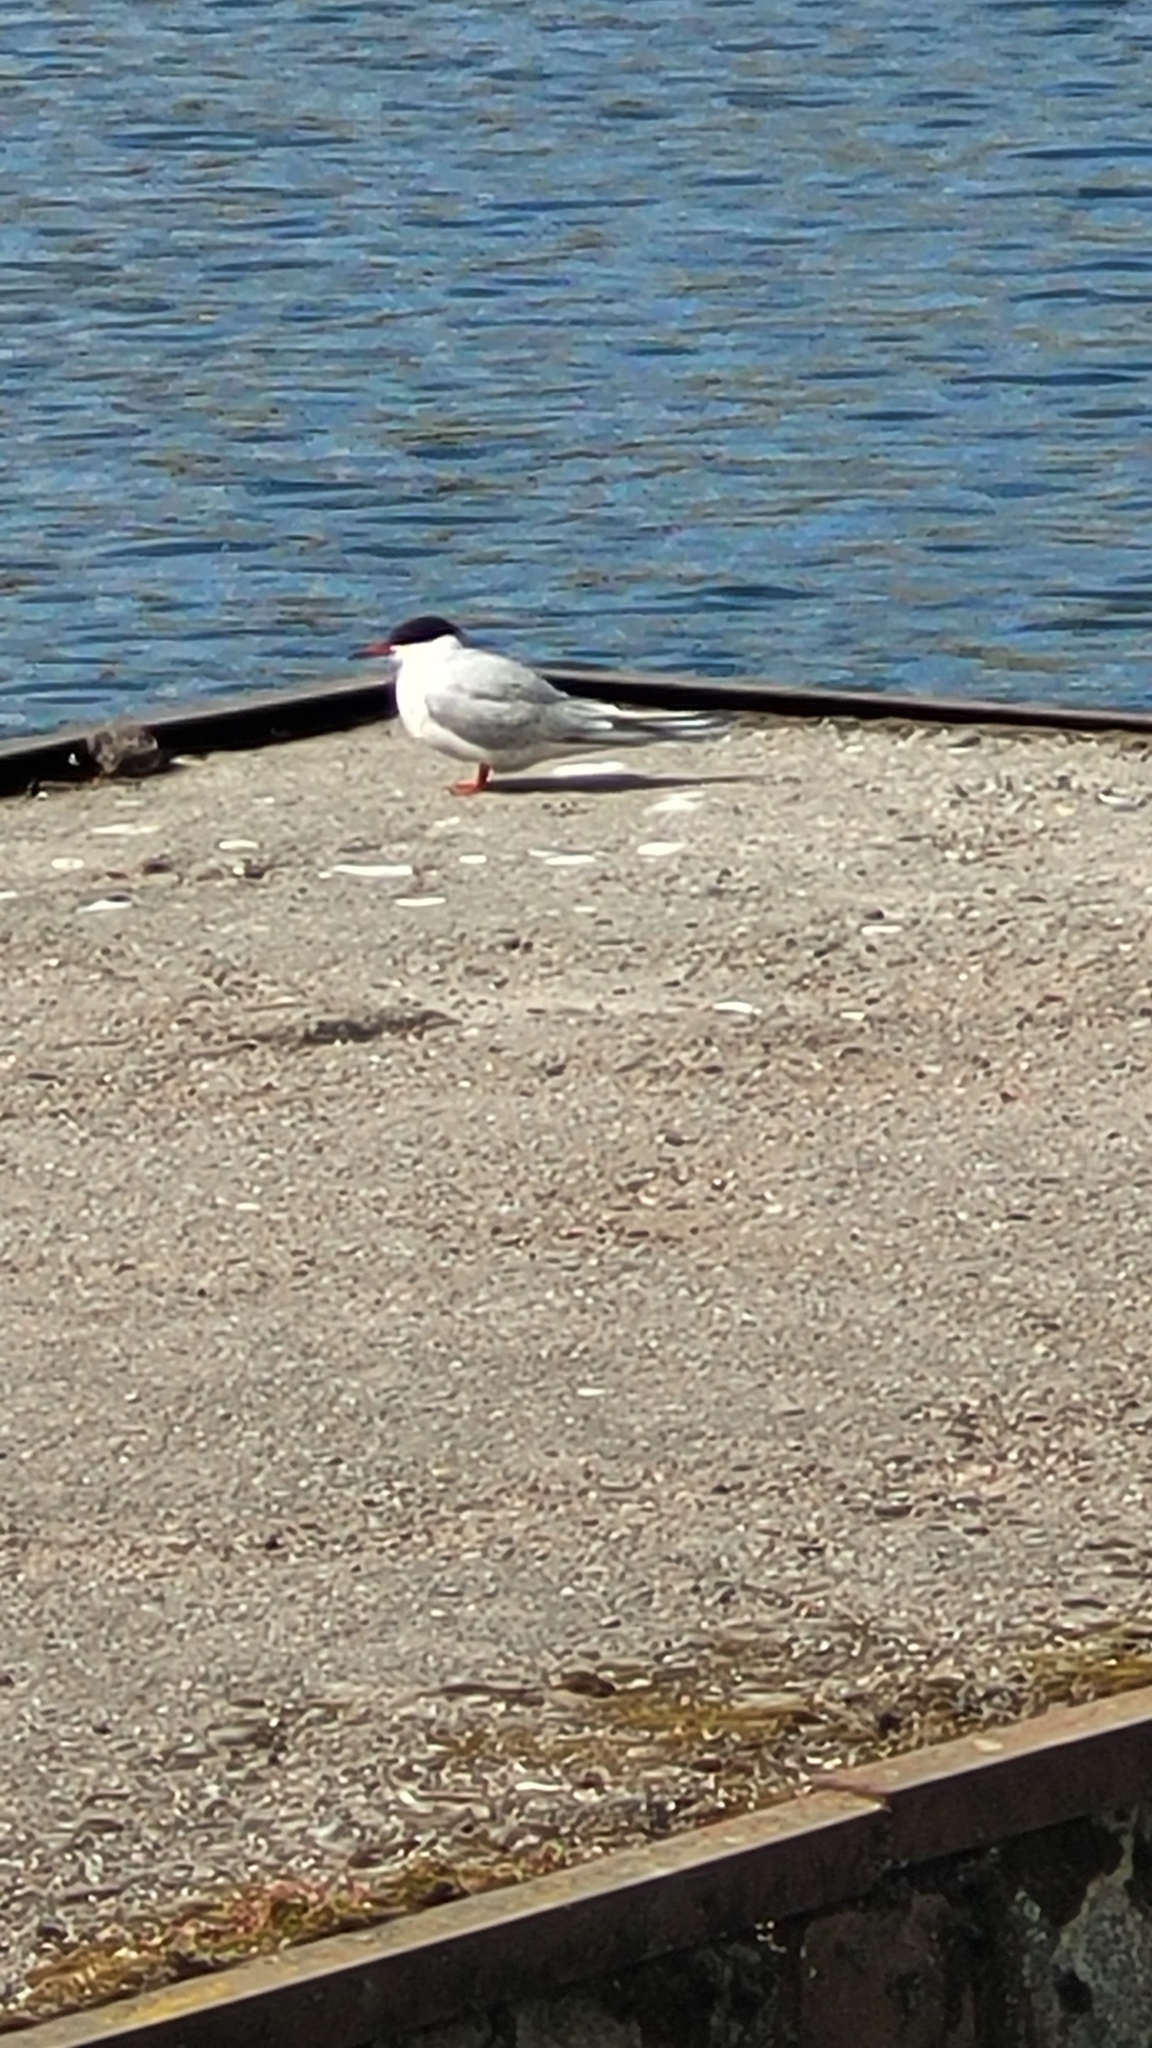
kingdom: Animalia
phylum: Chordata
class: Aves
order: Charadriiformes
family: Laridae
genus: Sterna
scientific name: Sterna hirundo
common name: Common tern
